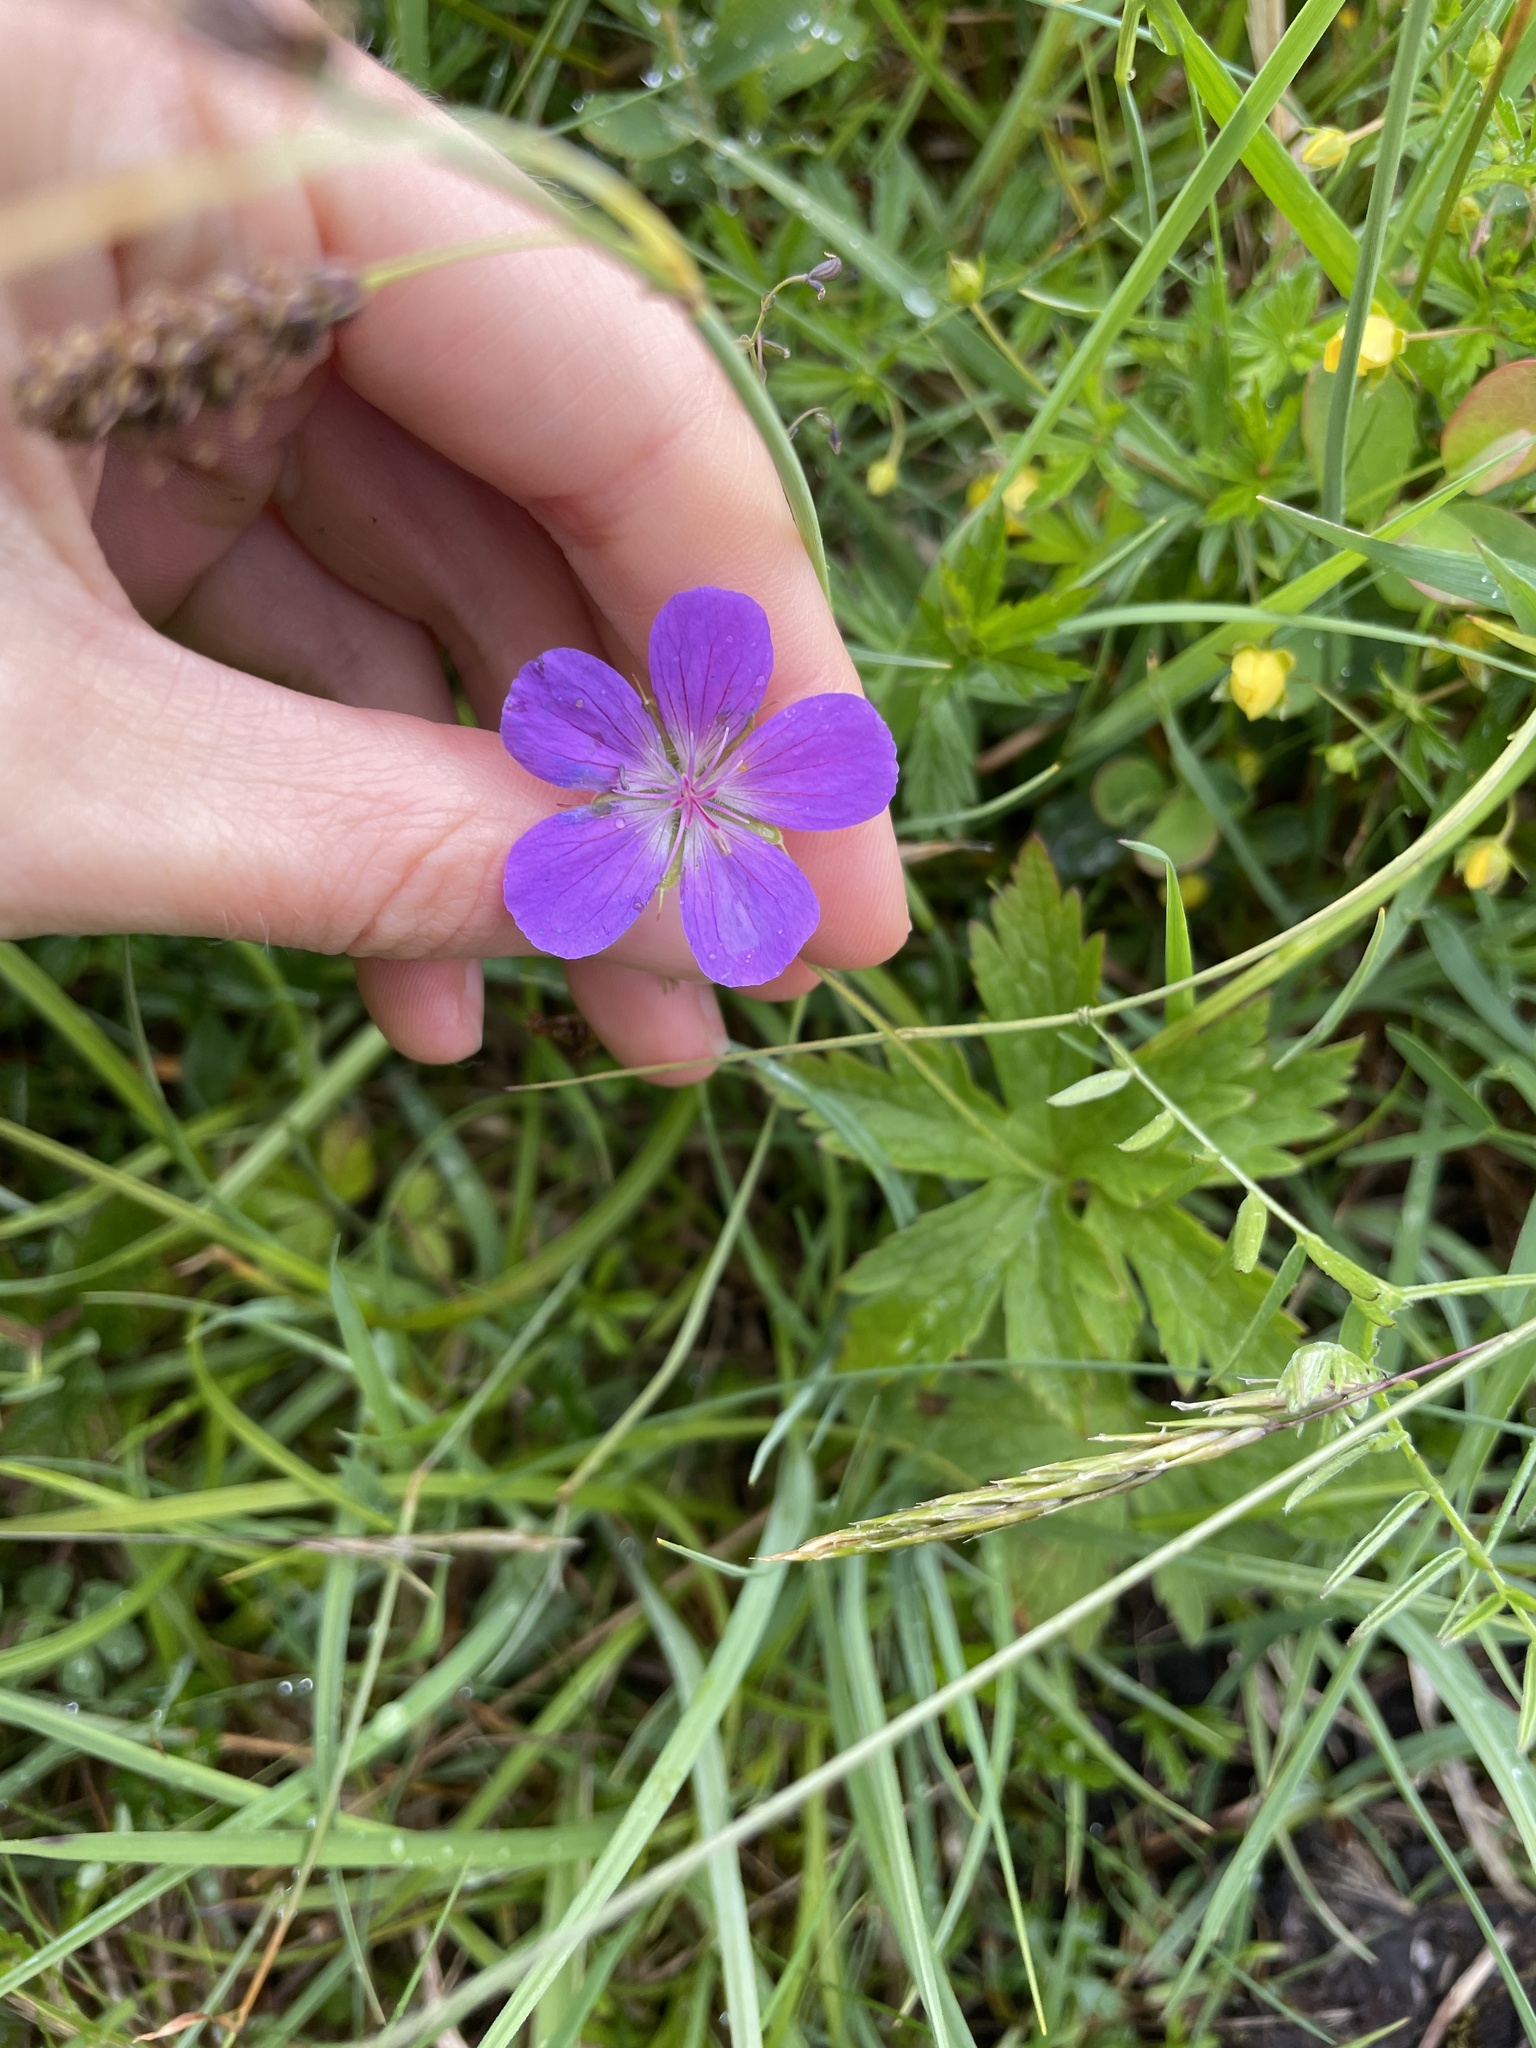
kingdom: Plantae
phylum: Tracheophyta
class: Magnoliopsida
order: Geraniales
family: Geraniaceae
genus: Geranium
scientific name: Geranium sylvaticum
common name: Wood crane's-bill
